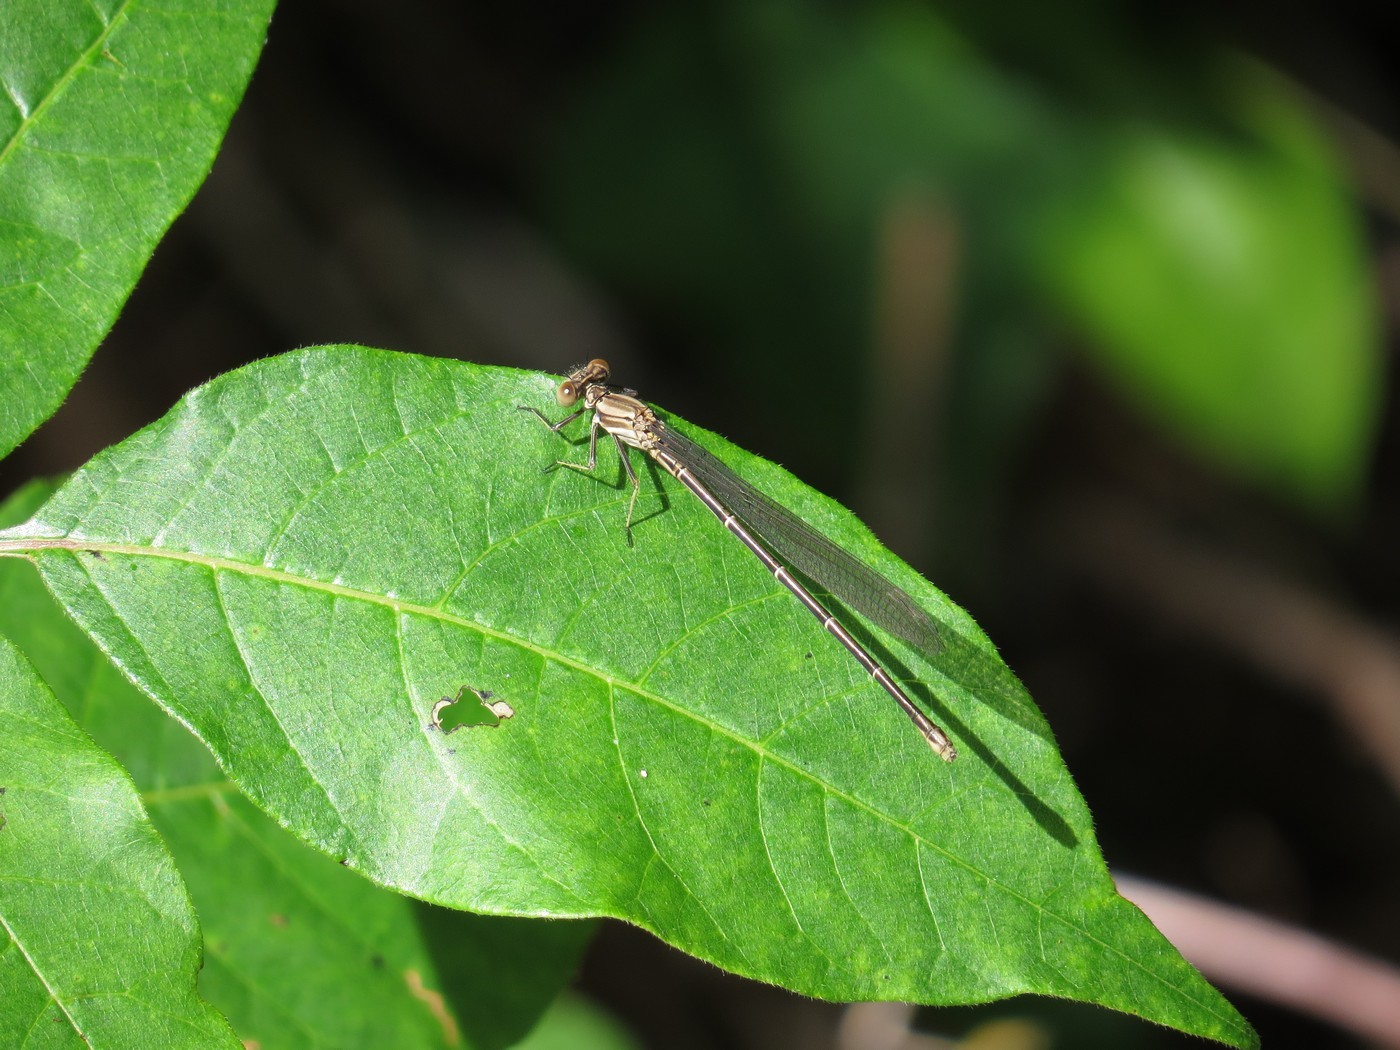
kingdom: Animalia
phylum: Arthropoda
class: Insecta
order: Odonata
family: Coenagrionidae
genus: Argia
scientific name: Argia translata
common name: Dusky dancer
